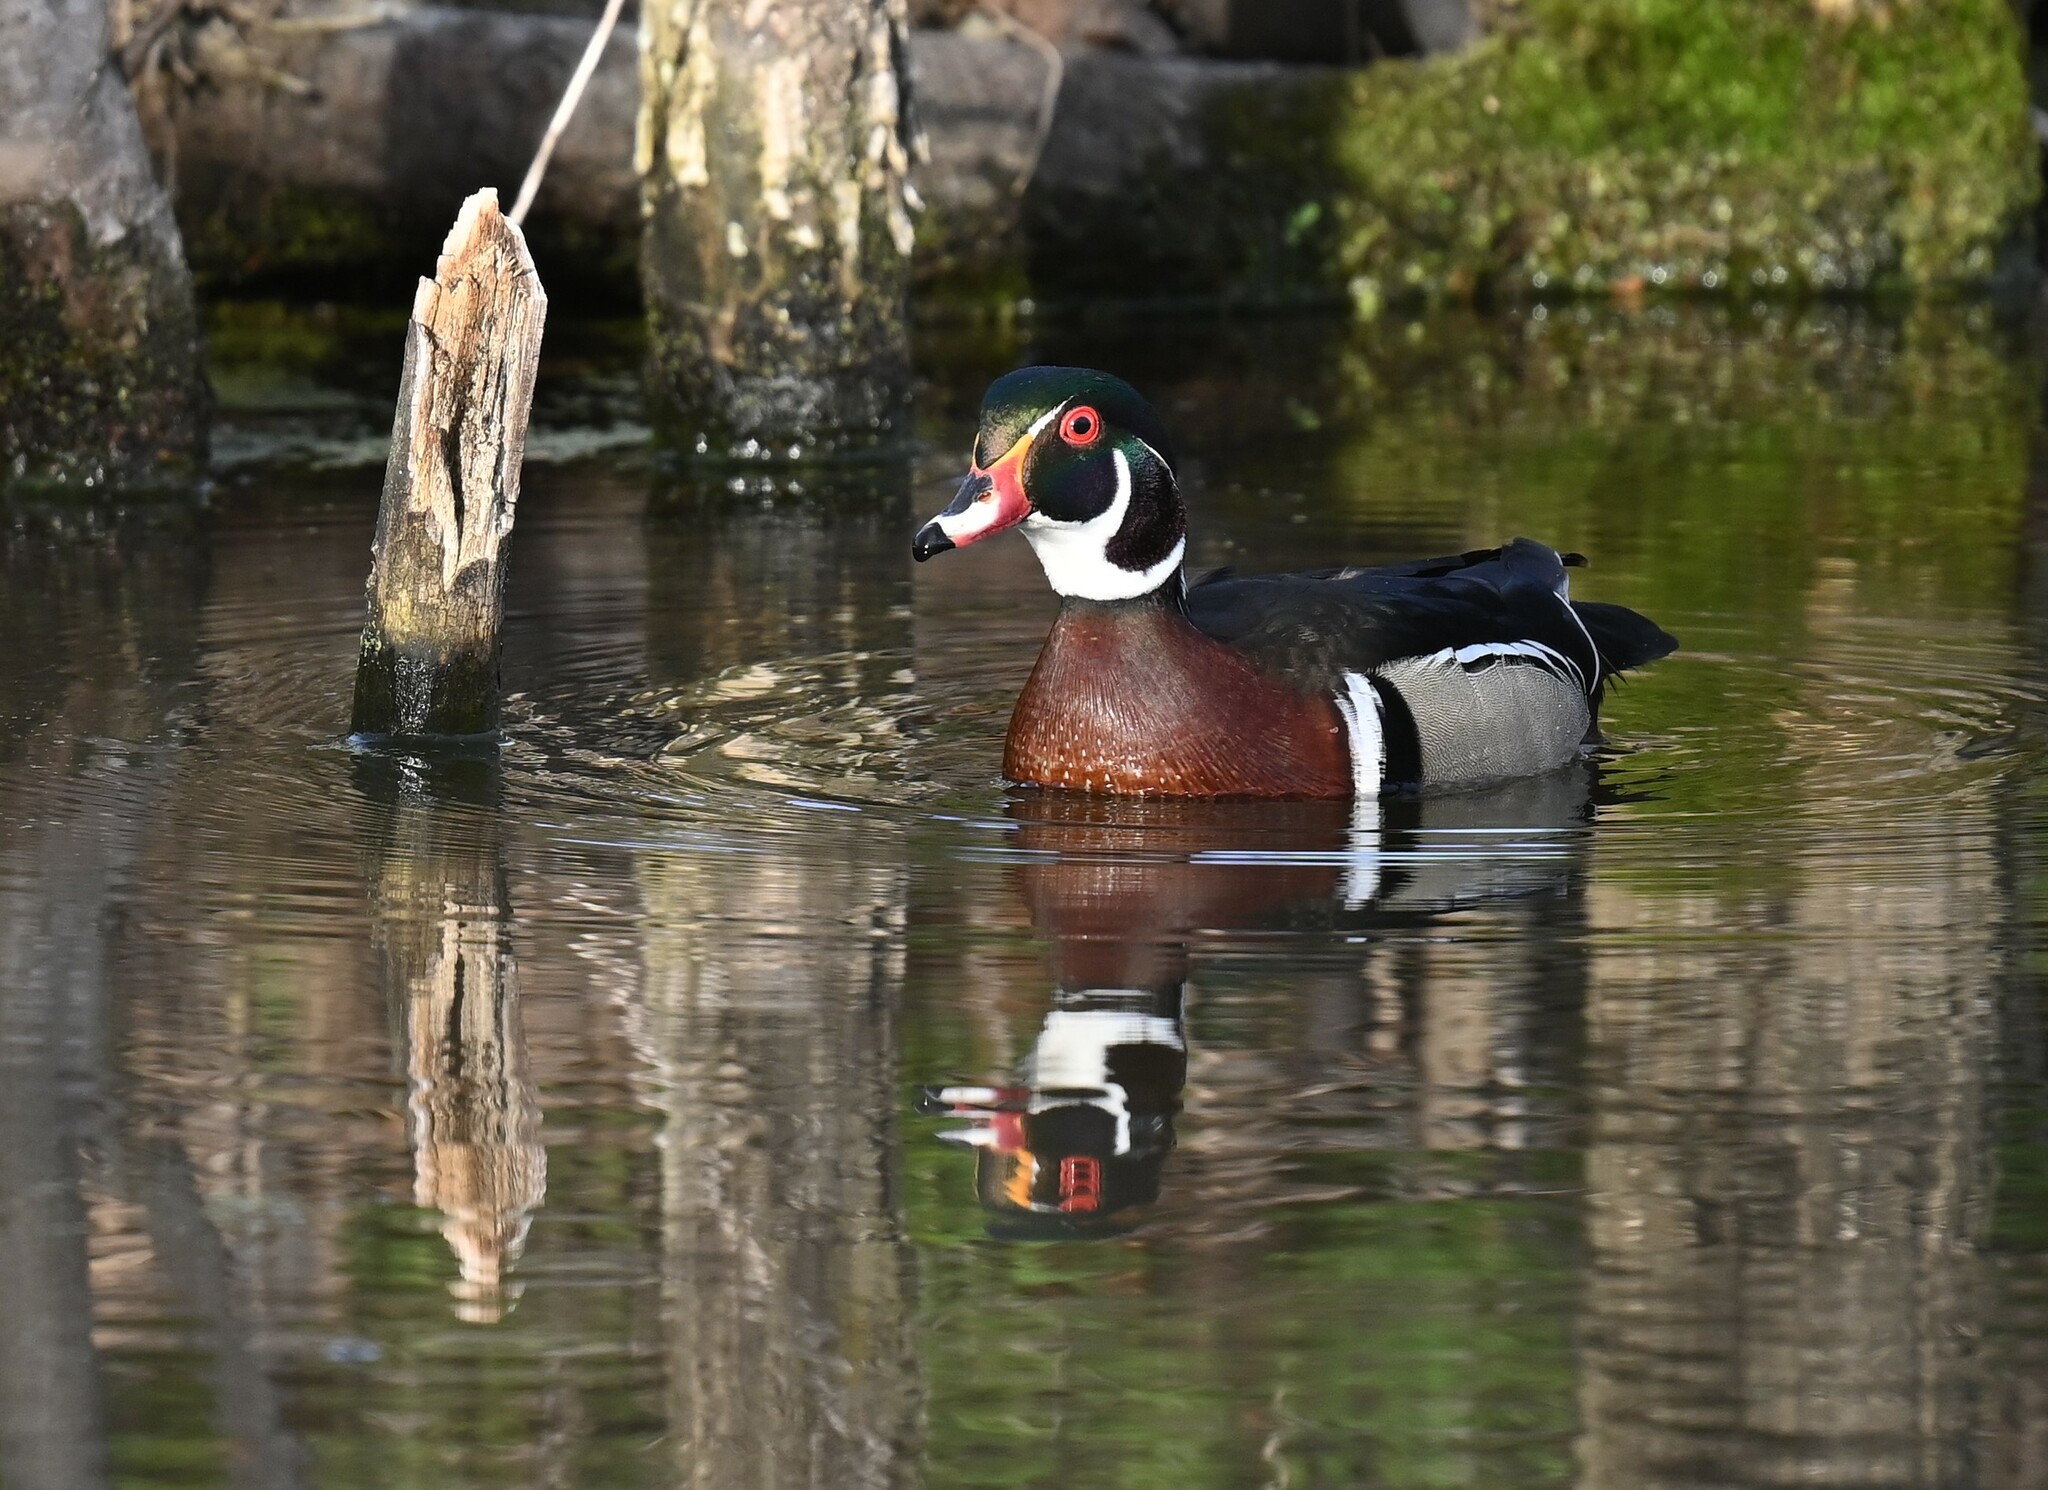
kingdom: Animalia
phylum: Chordata
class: Aves
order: Anseriformes
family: Anatidae
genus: Aix
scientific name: Aix sponsa
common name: Wood duck
